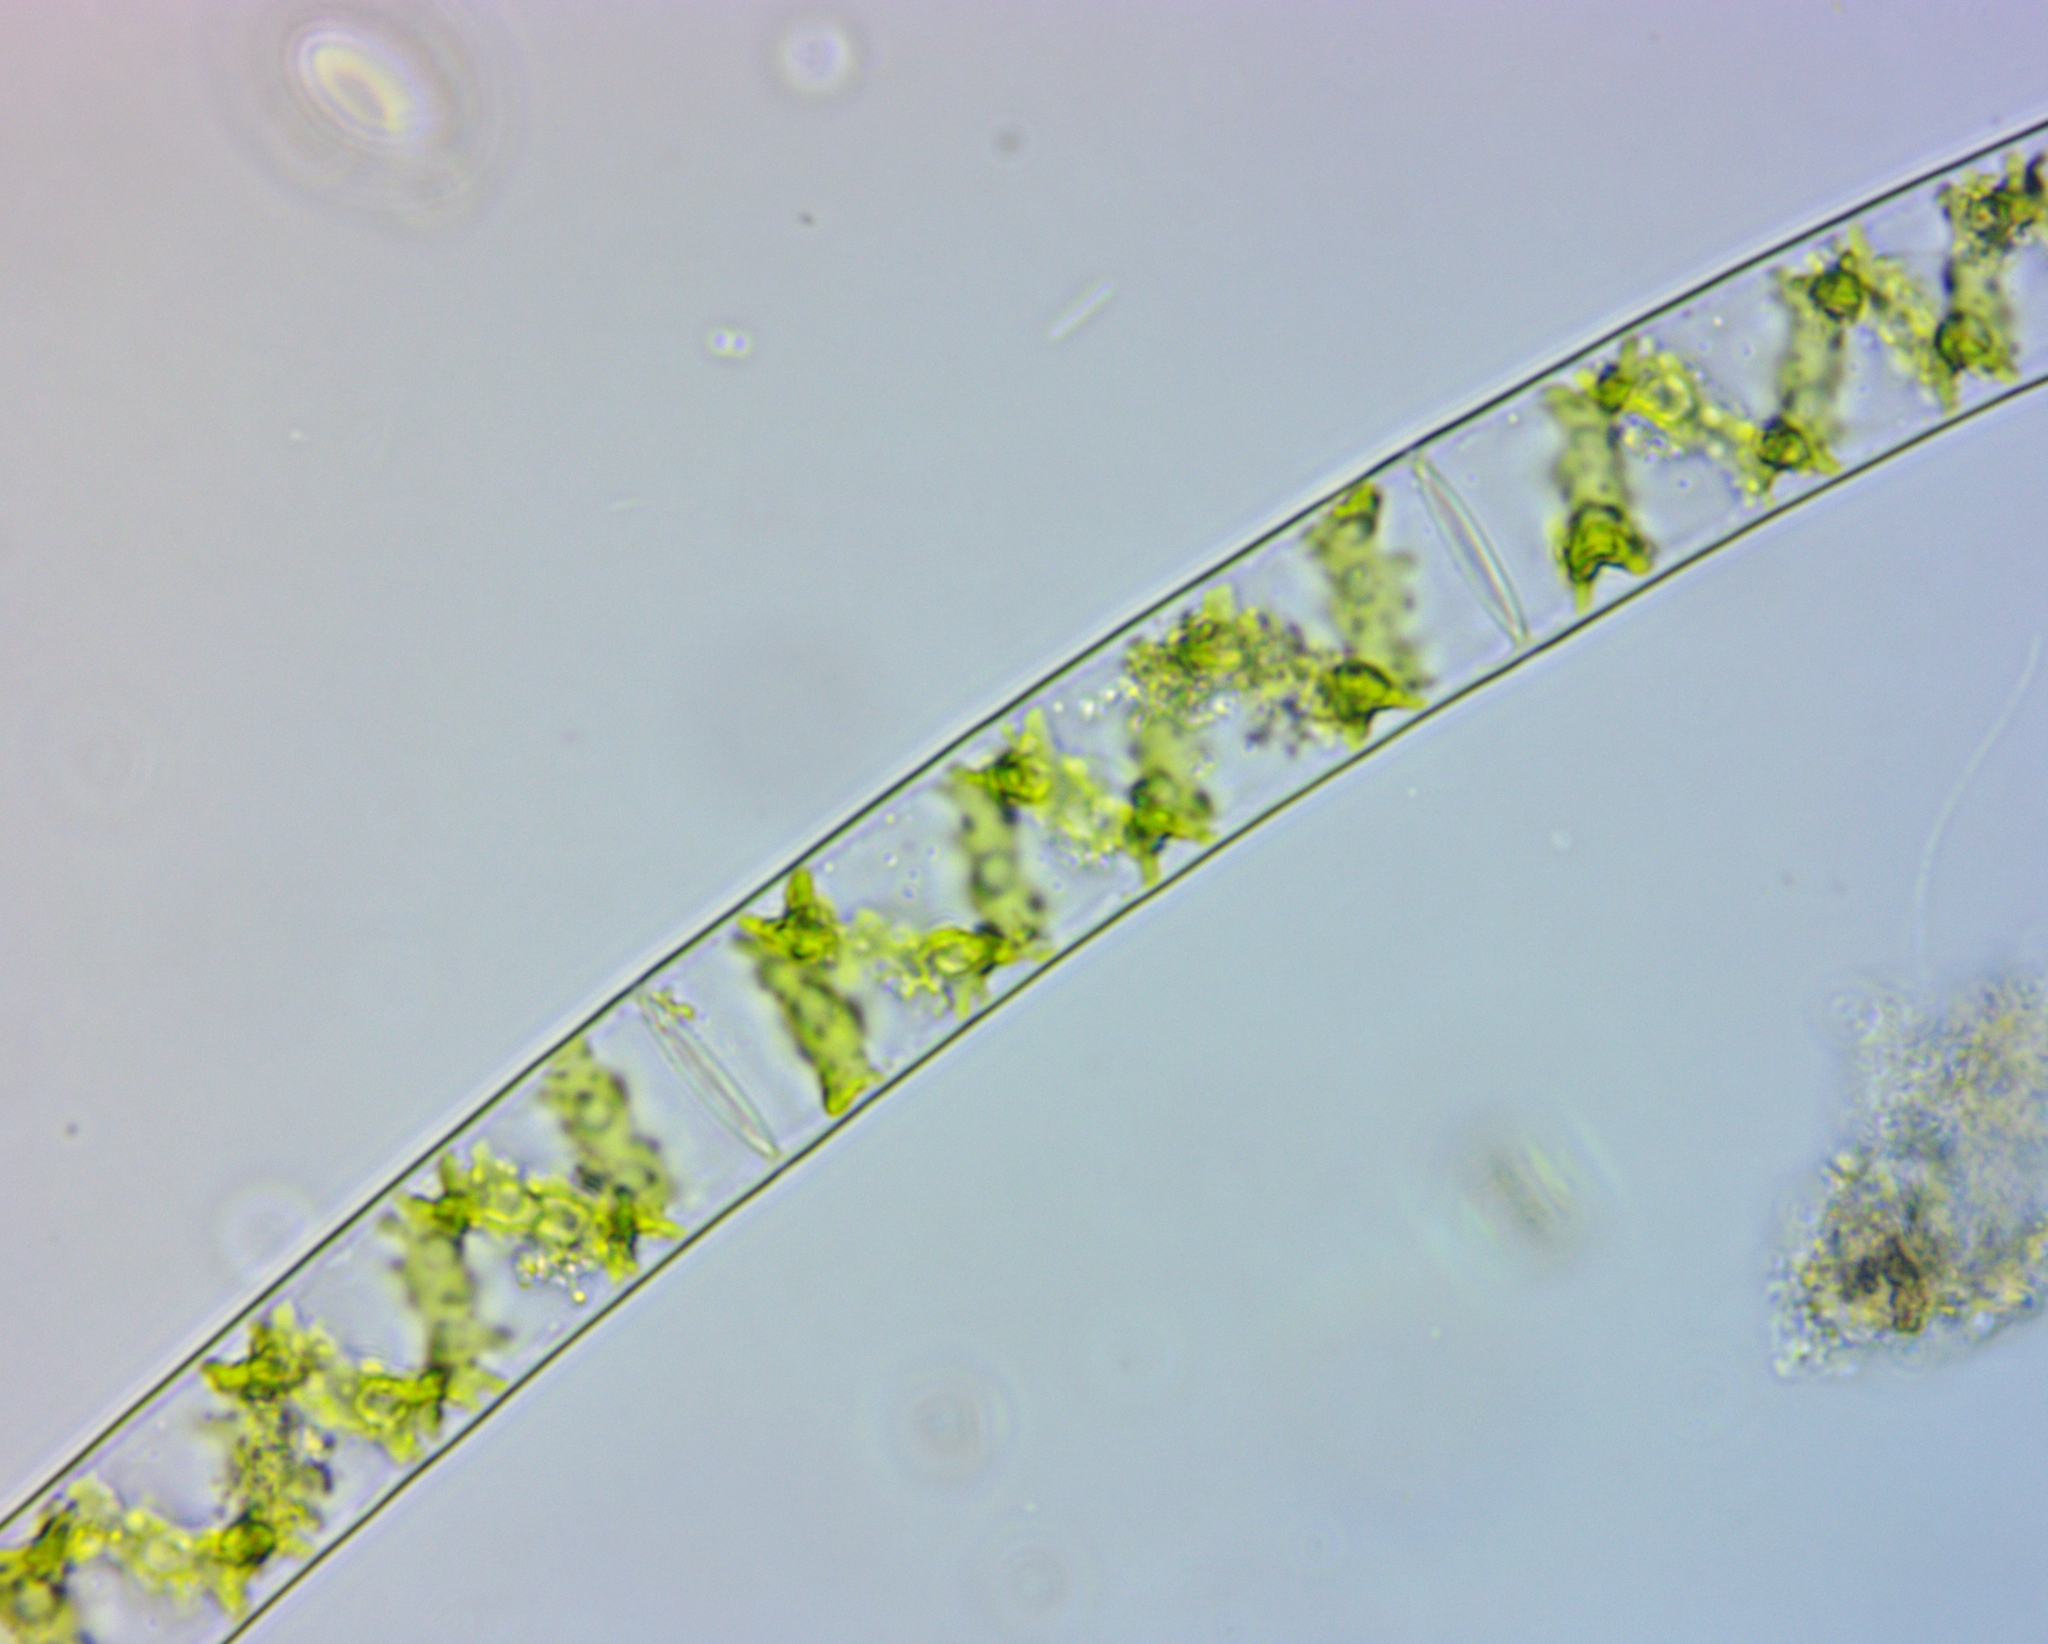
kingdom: Plantae
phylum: Charophyta
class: Zygnematophyceae
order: Zygnematales
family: Zygnemataceae
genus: Spirogyra
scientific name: Spirogyra
